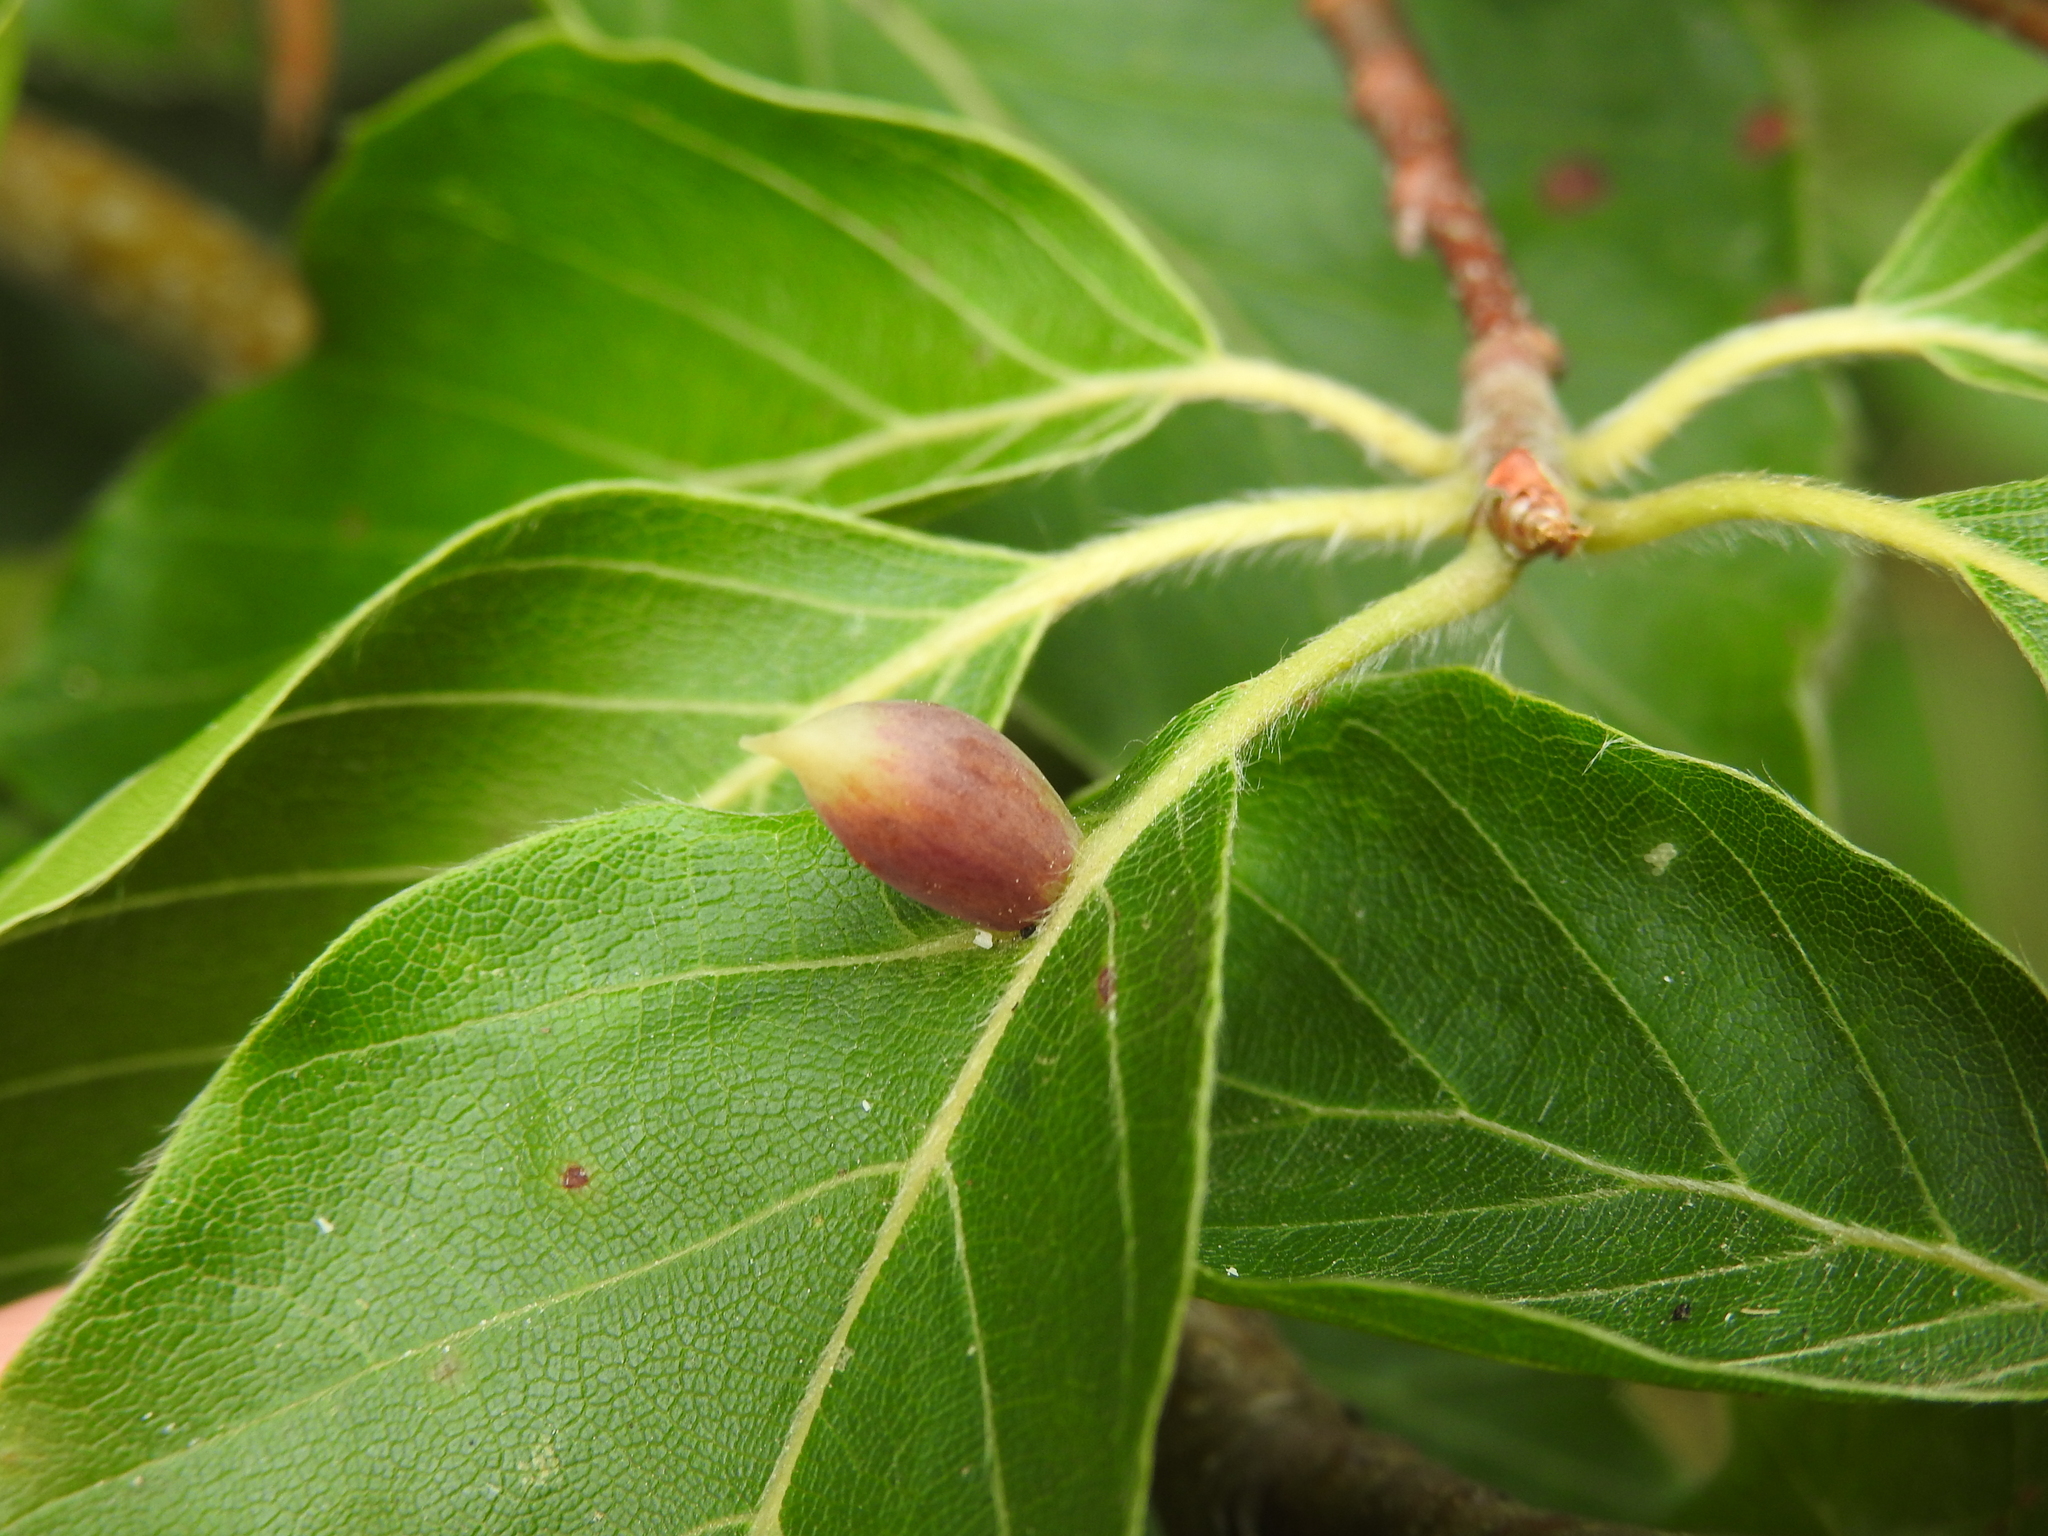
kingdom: Animalia
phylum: Arthropoda
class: Insecta
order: Diptera
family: Cecidomyiidae
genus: Mikiola
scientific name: Mikiola fagi
